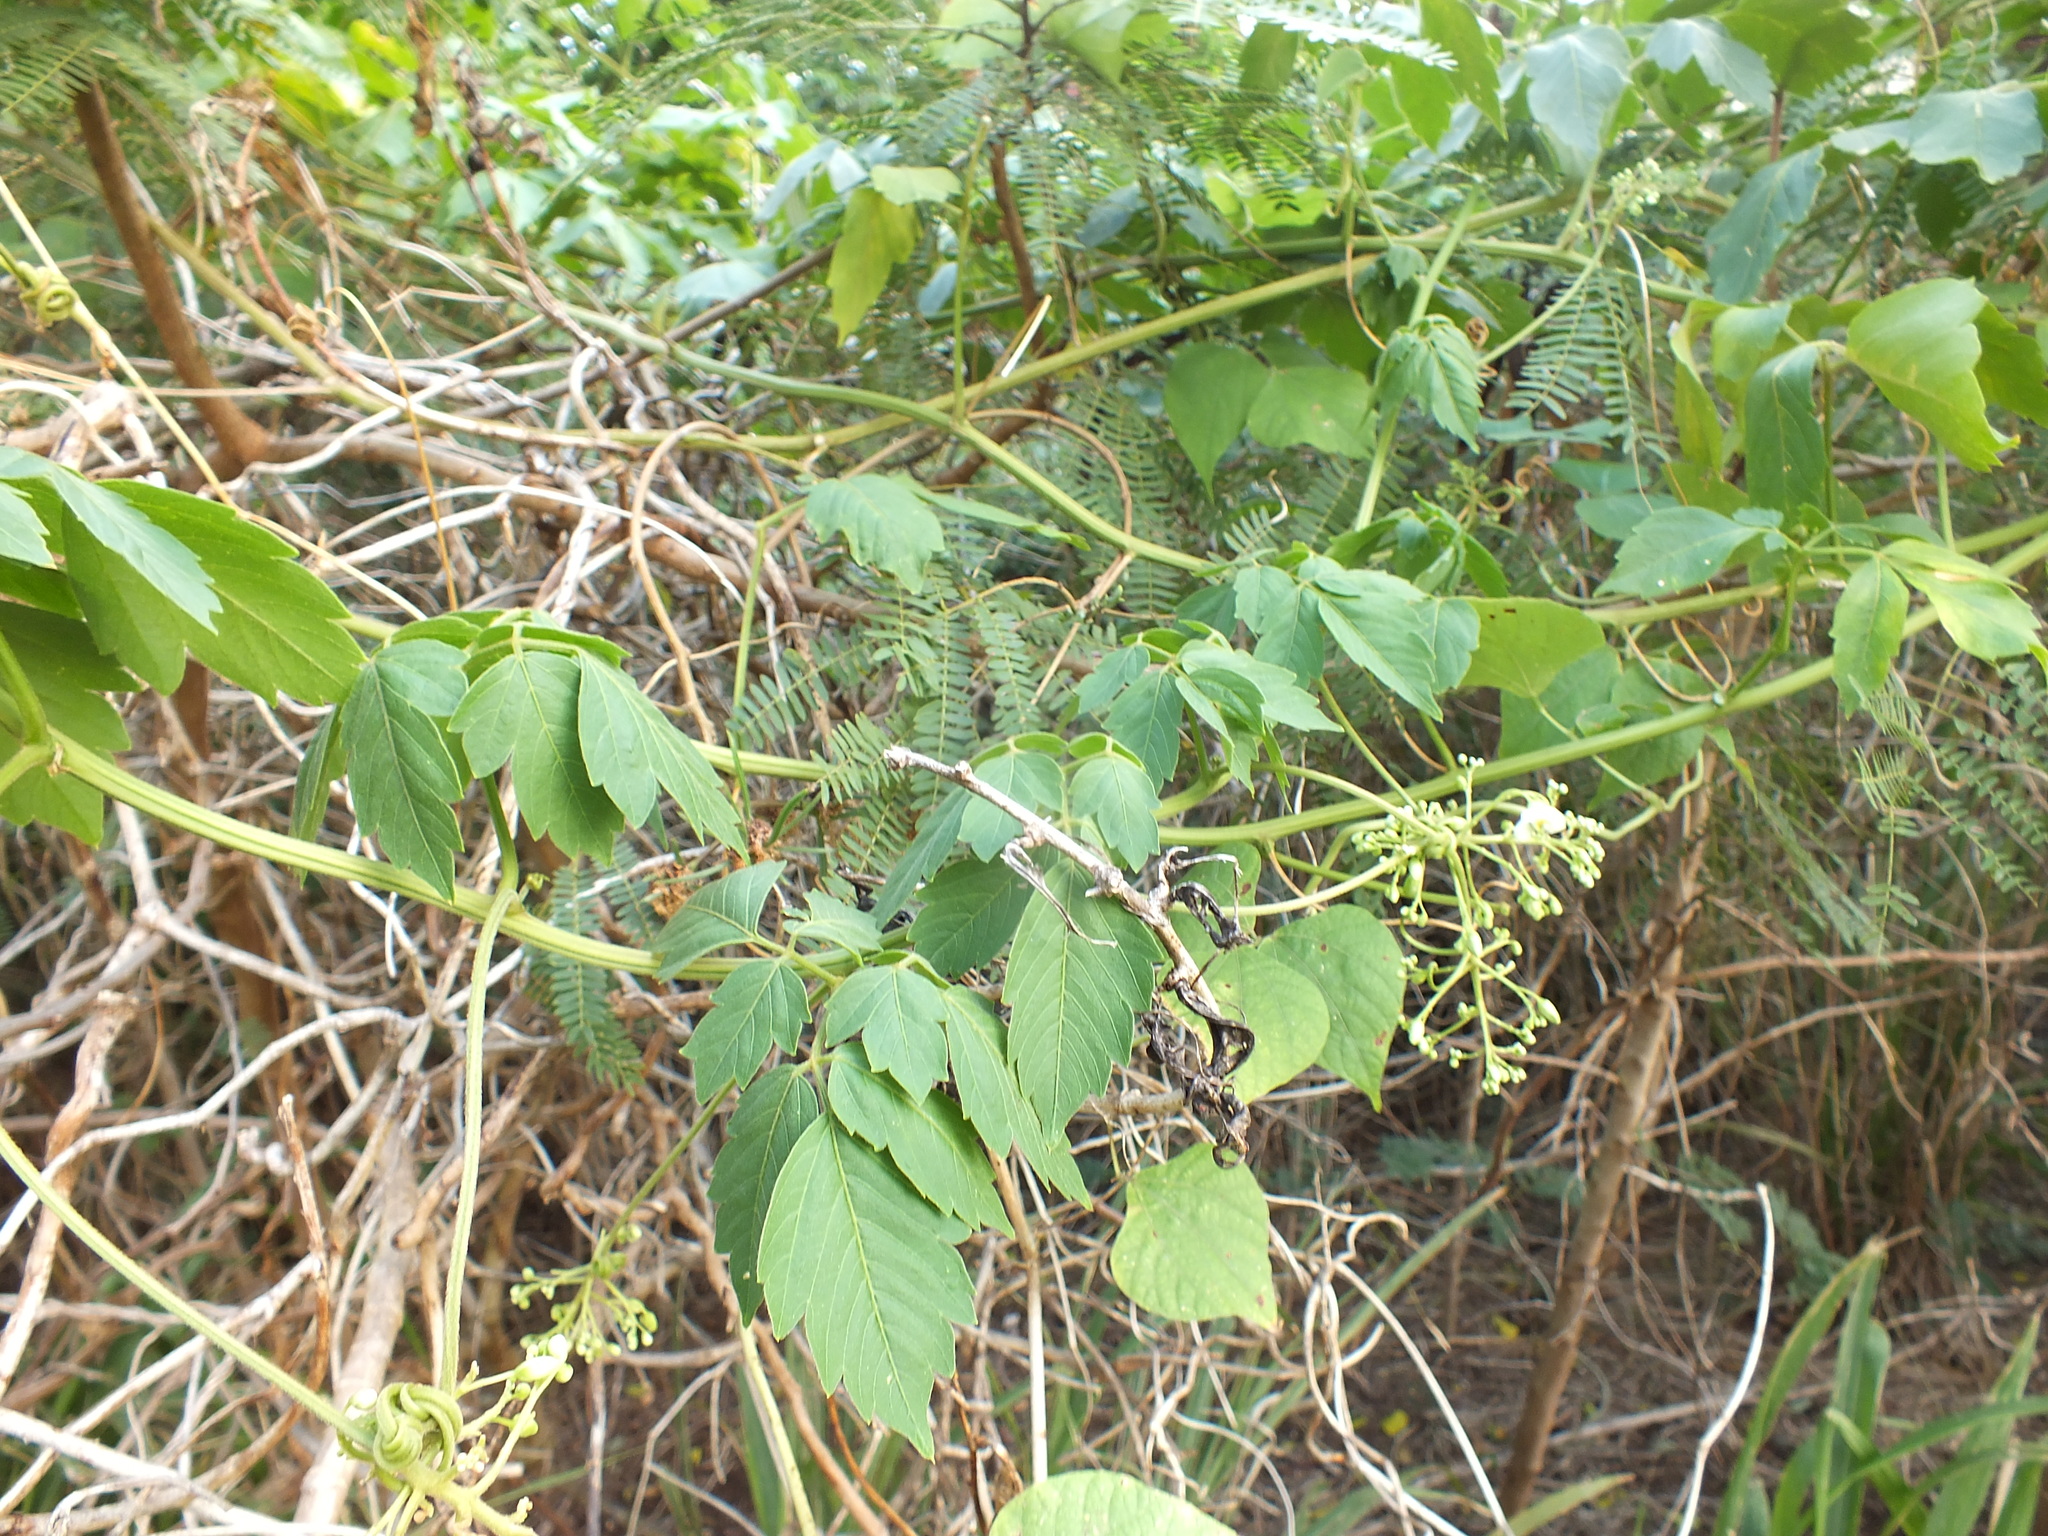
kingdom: Plantae
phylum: Tracheophyta
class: Magnoliopsida
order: Sapindales
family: Sapindaceae
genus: Cardiospermum
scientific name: Cardiospermum grandiflorum
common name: Balloon vine
